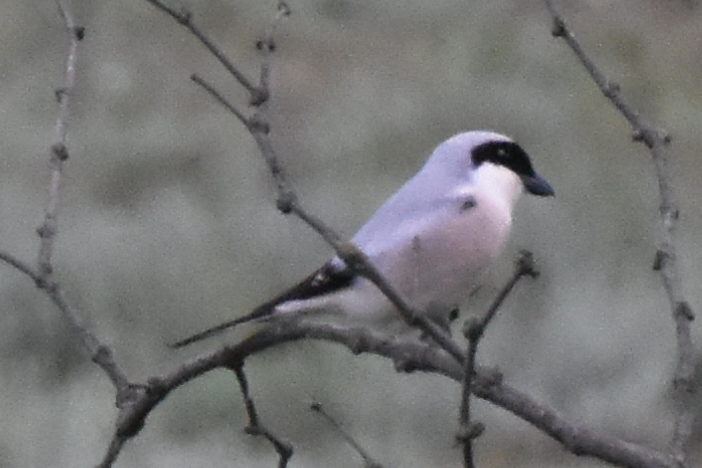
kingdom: Animalia
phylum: Chordata
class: Aves
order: Passeriformes
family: Laniidae
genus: Lanius
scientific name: Lanius minor
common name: Lesser grey shrike
